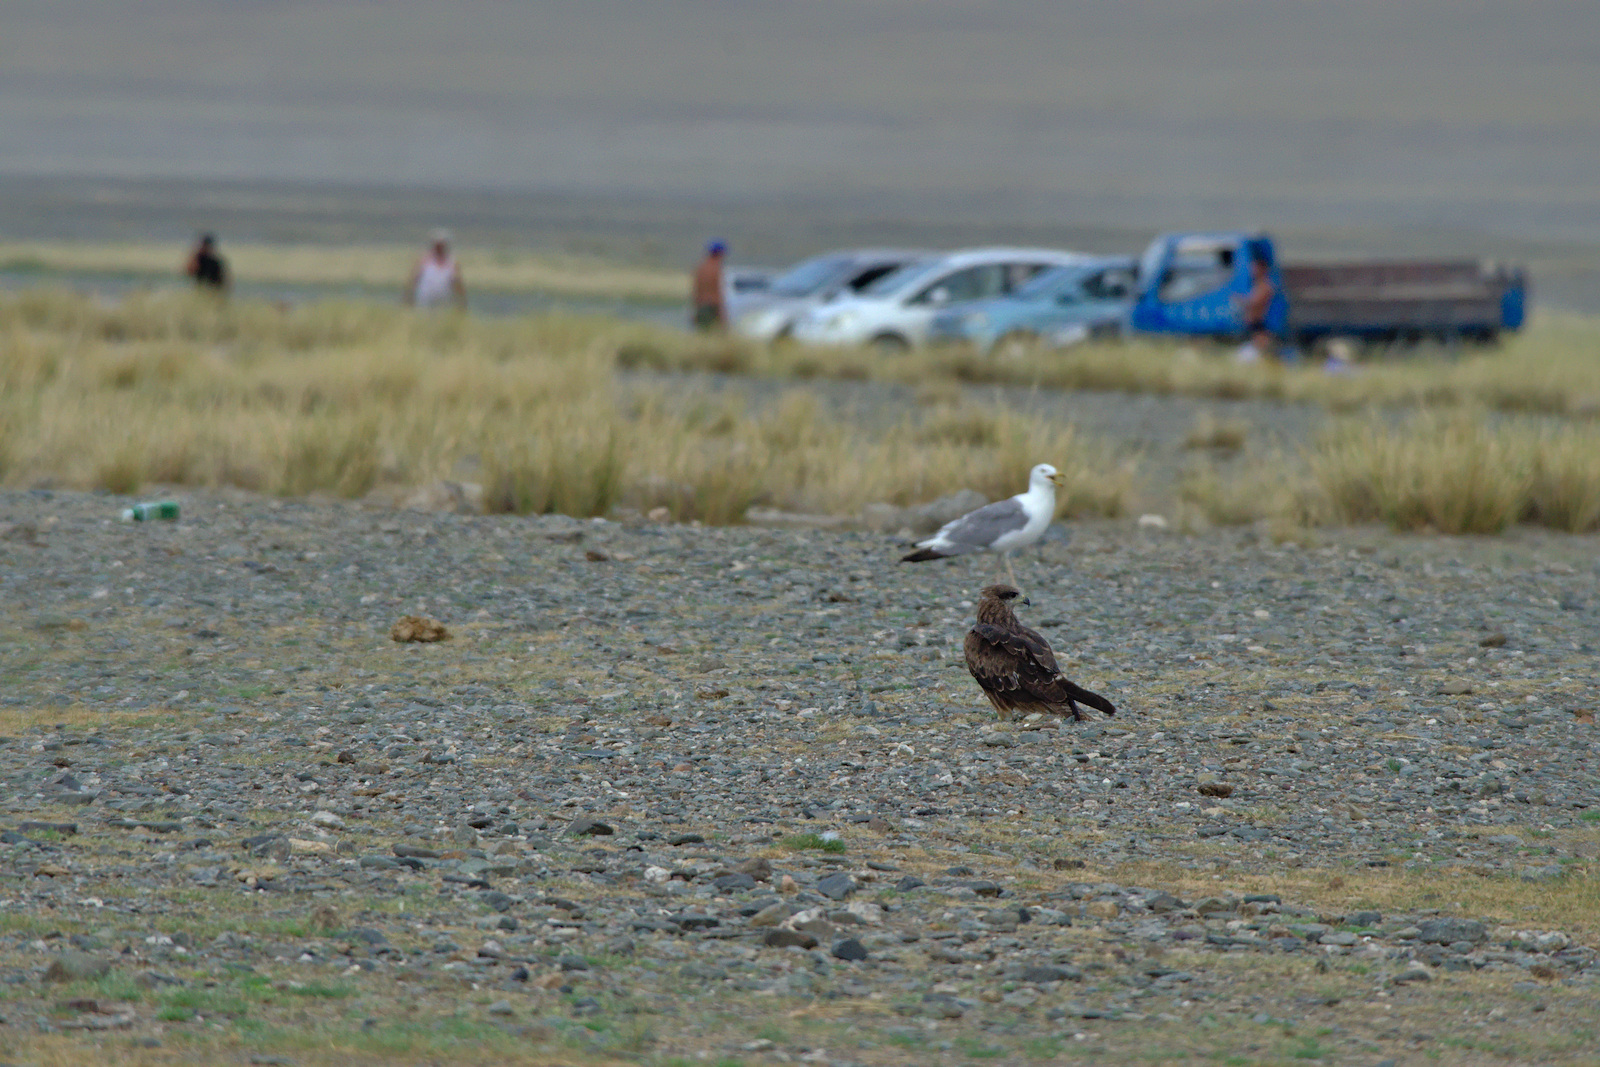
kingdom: Animalia
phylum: Chordata
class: Aves
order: Accipitriformes
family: Accipitridae
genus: Milvus
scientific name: Milvus migrans
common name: Black kite
